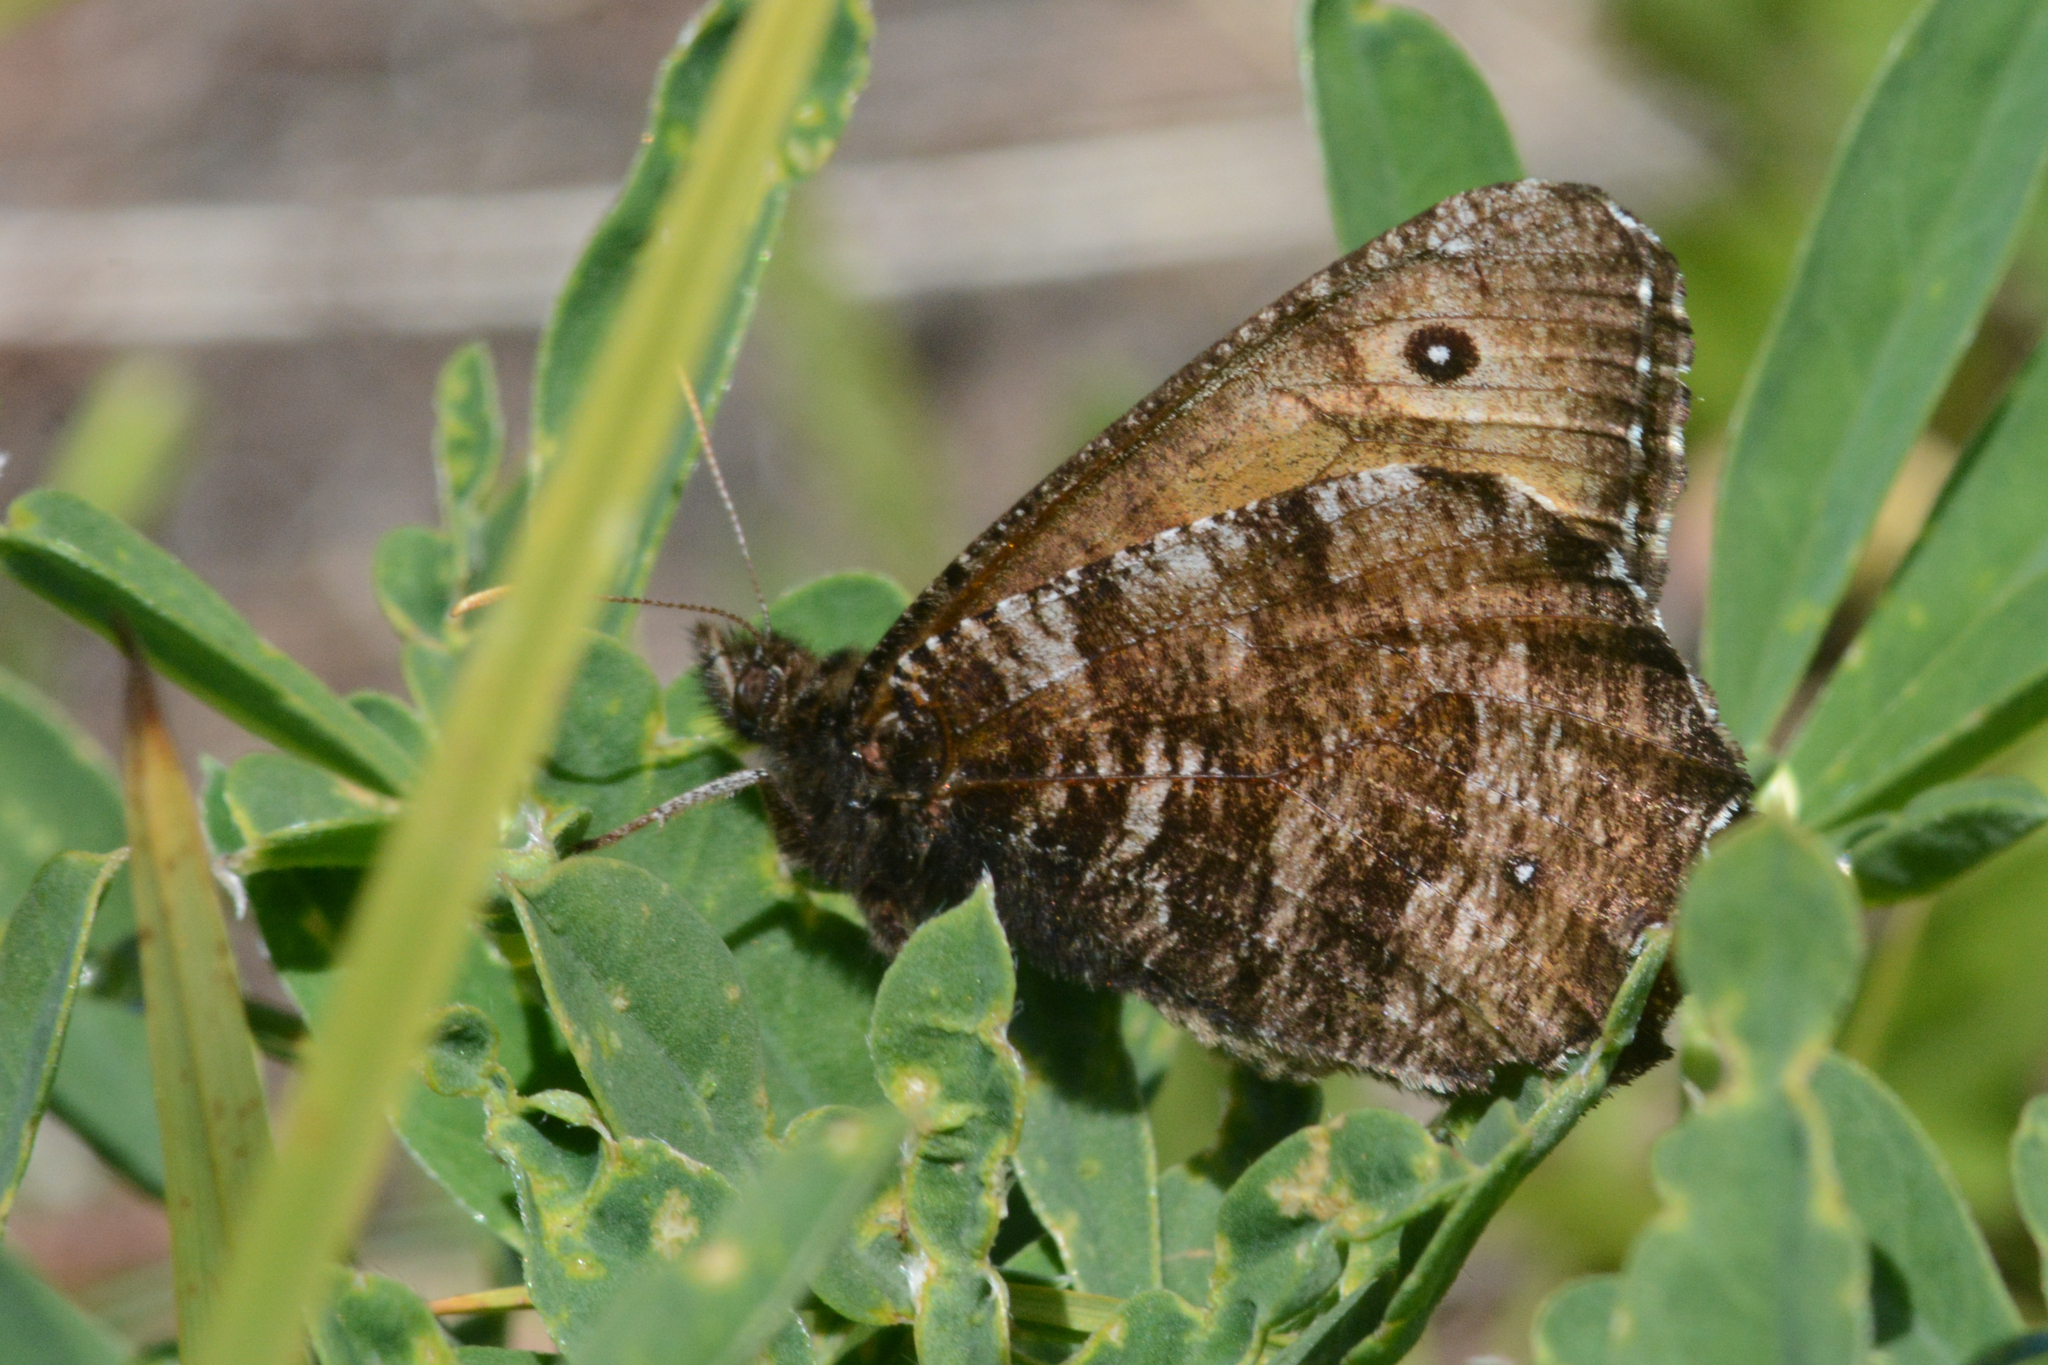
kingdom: Animalia
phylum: Arthropoda
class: Insecta
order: Lepidoptera
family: Nymphalidae
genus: Oeneis
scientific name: Oeneis nevadensis
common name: Great arctic
